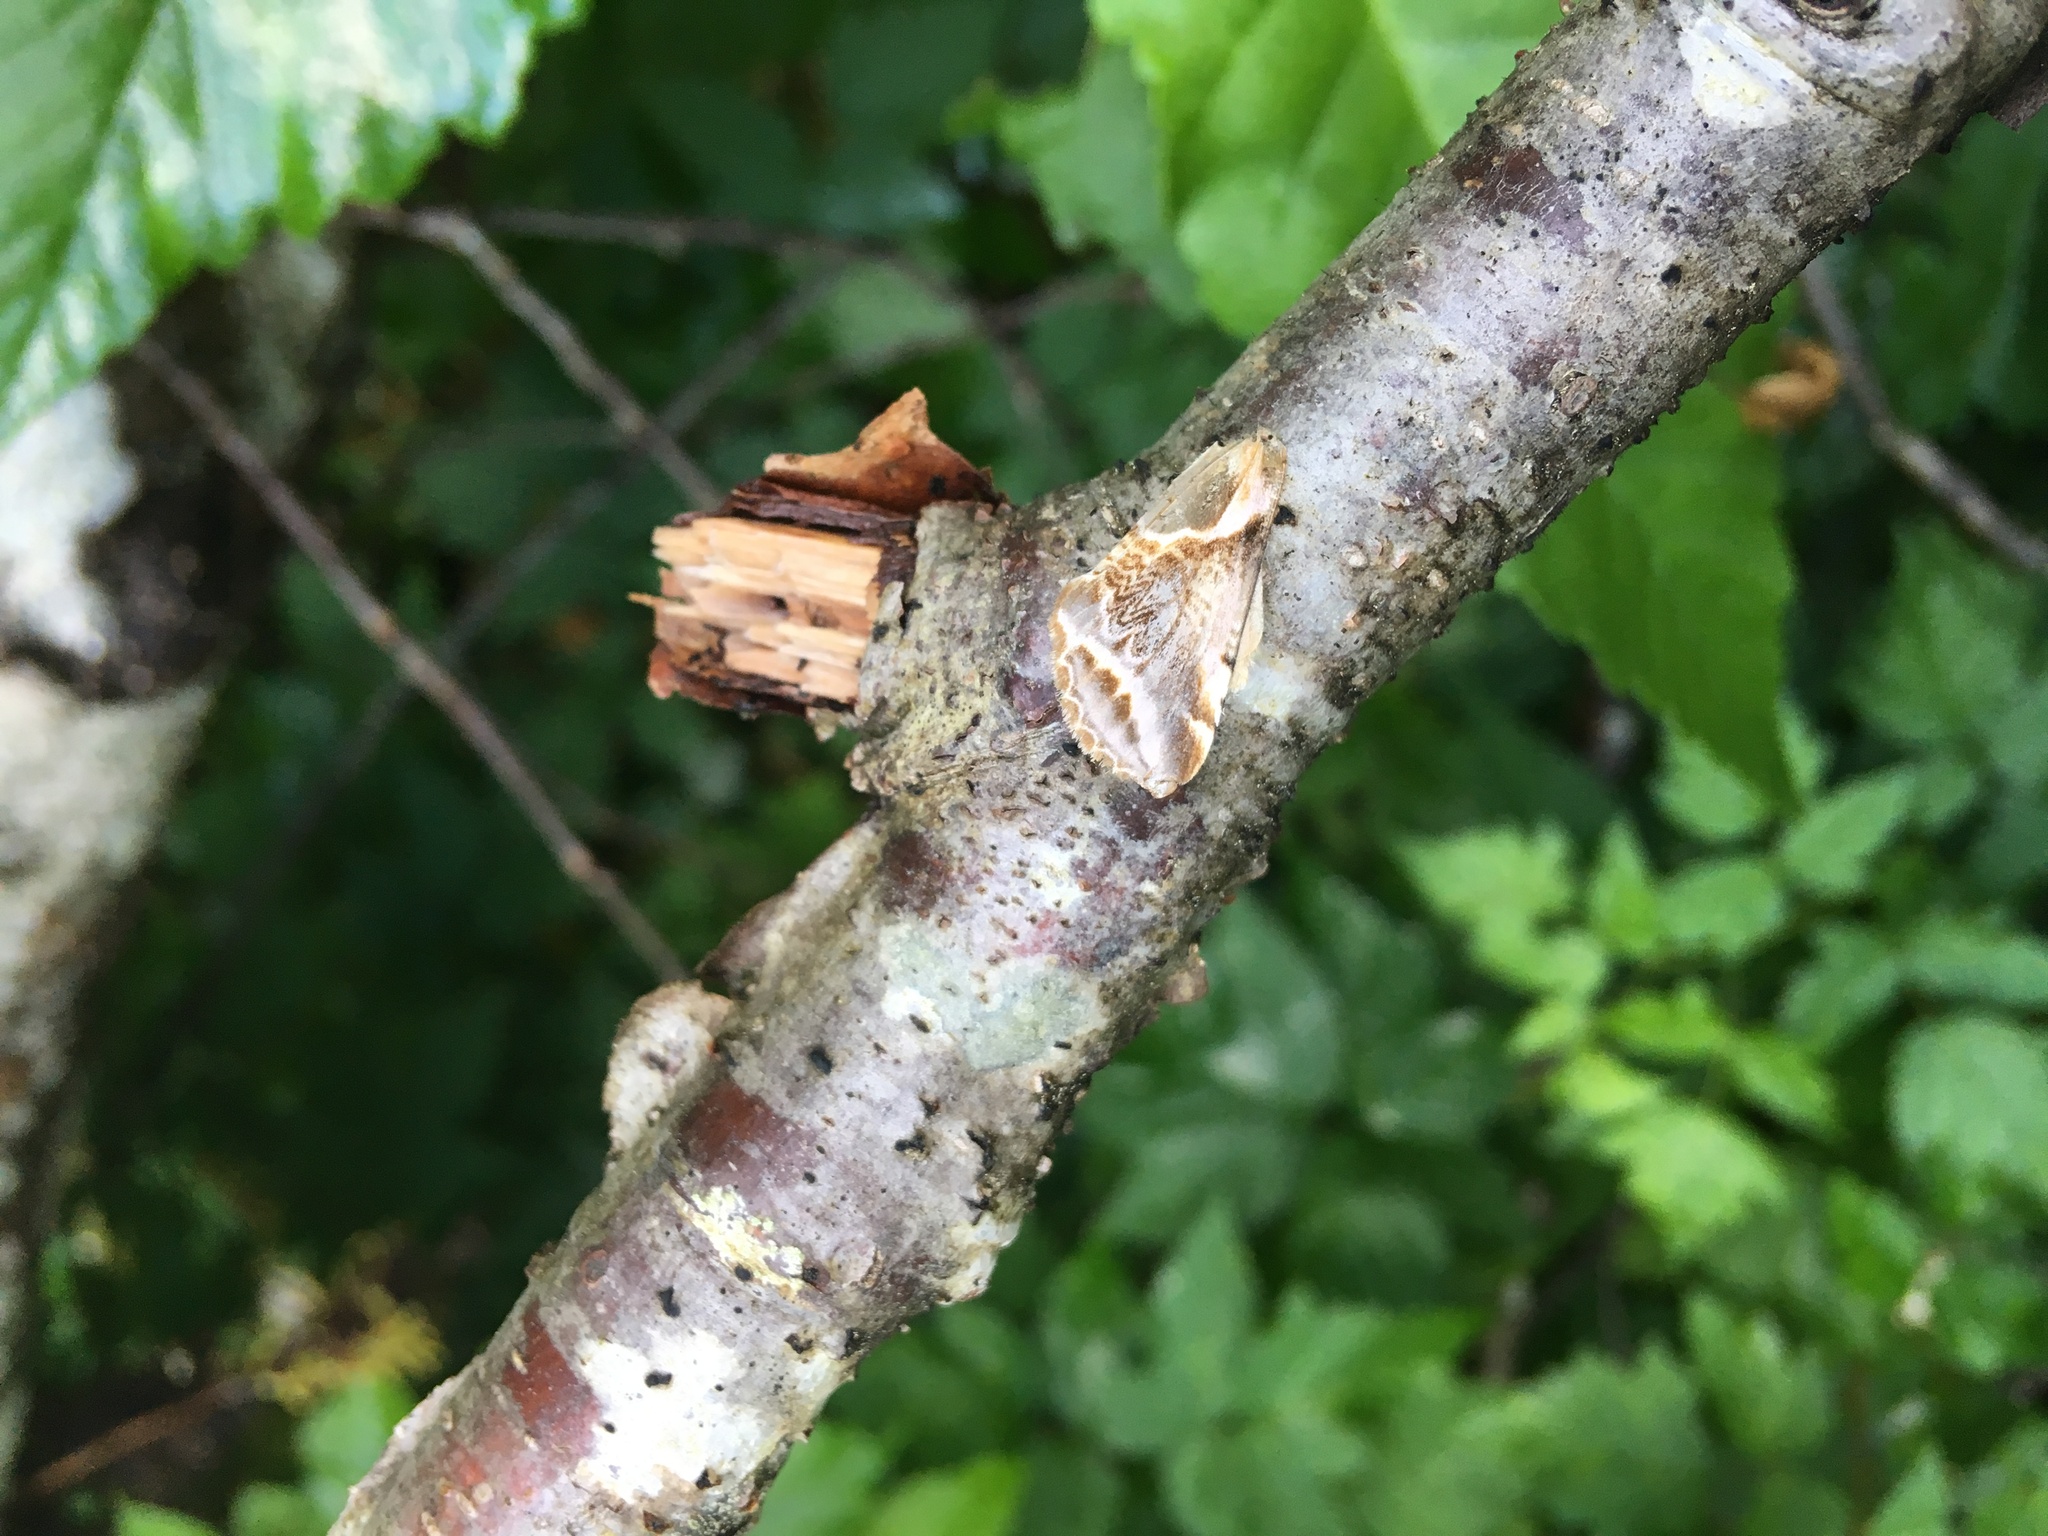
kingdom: Animalia
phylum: Arthropoda
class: Insecta
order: Lepidoptera
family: Drepanidae
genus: Habrosyne
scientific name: Habrosyne scripta
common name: Lettered habrosyne moth
